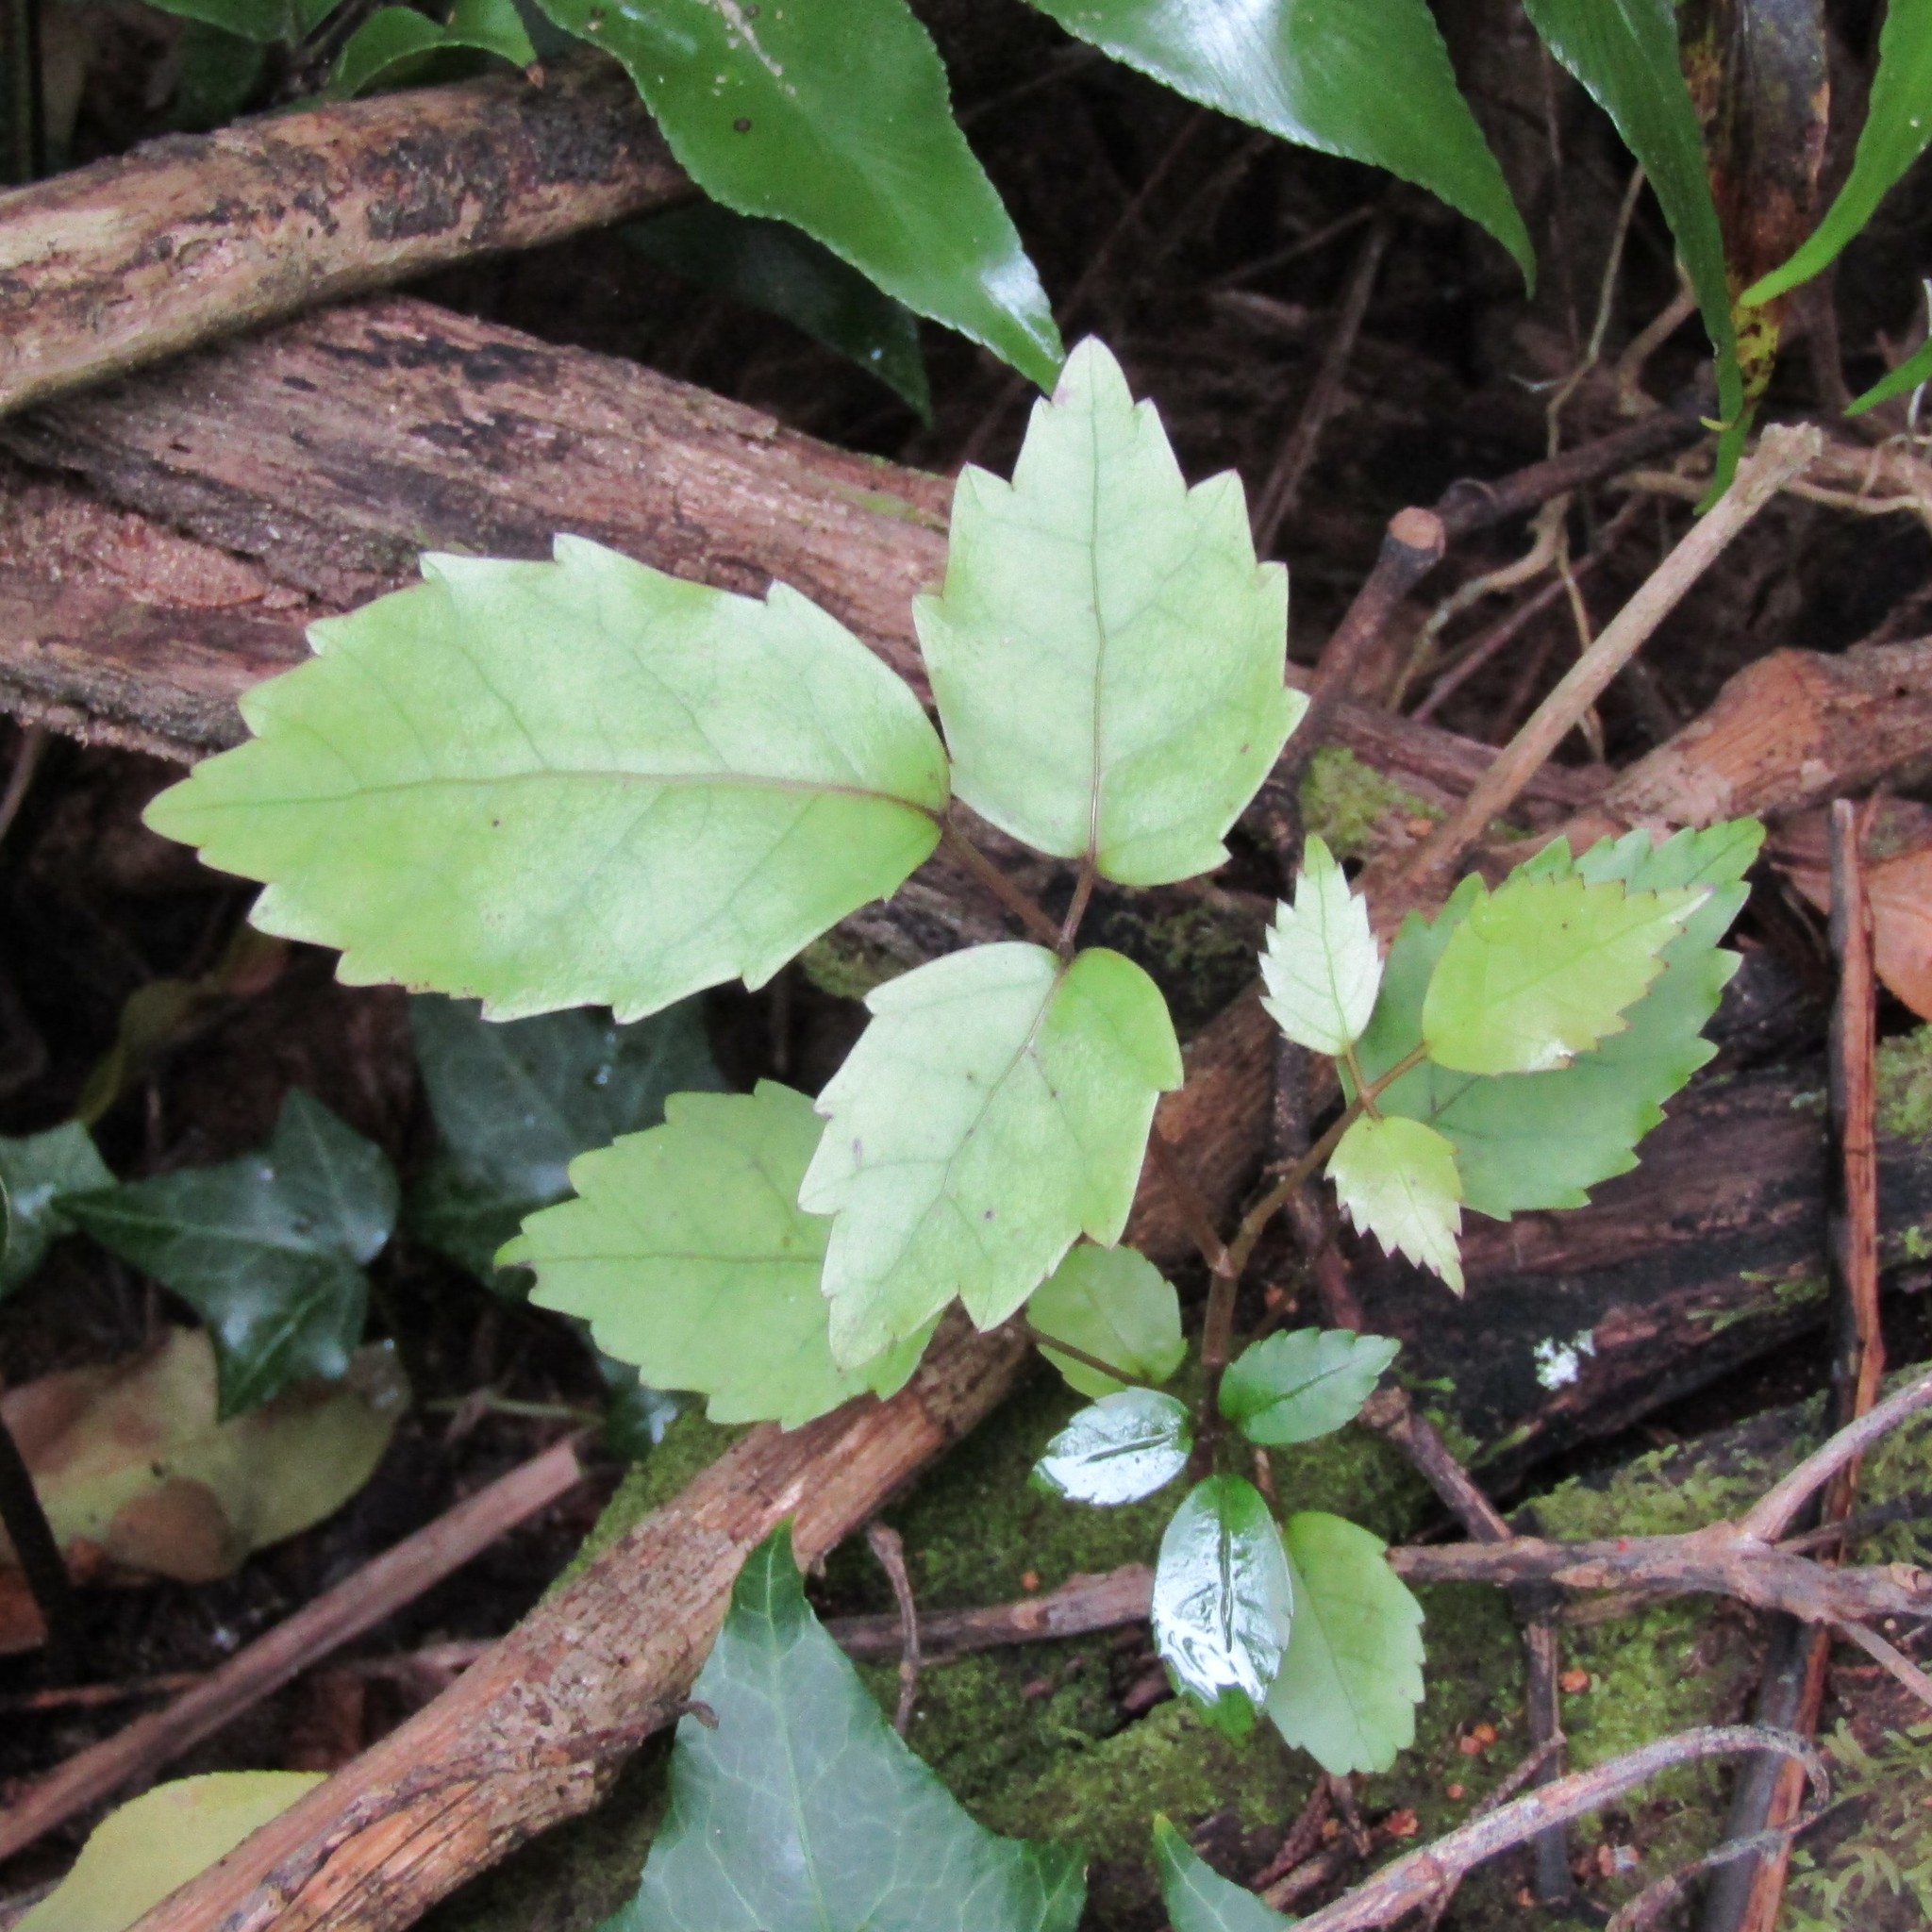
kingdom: Plantae
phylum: Tracheophyta
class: Magnoliopsida
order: Apiales
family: Araliaceae
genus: Neopanax
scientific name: Neopanax arboreus
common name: Five-fingers
